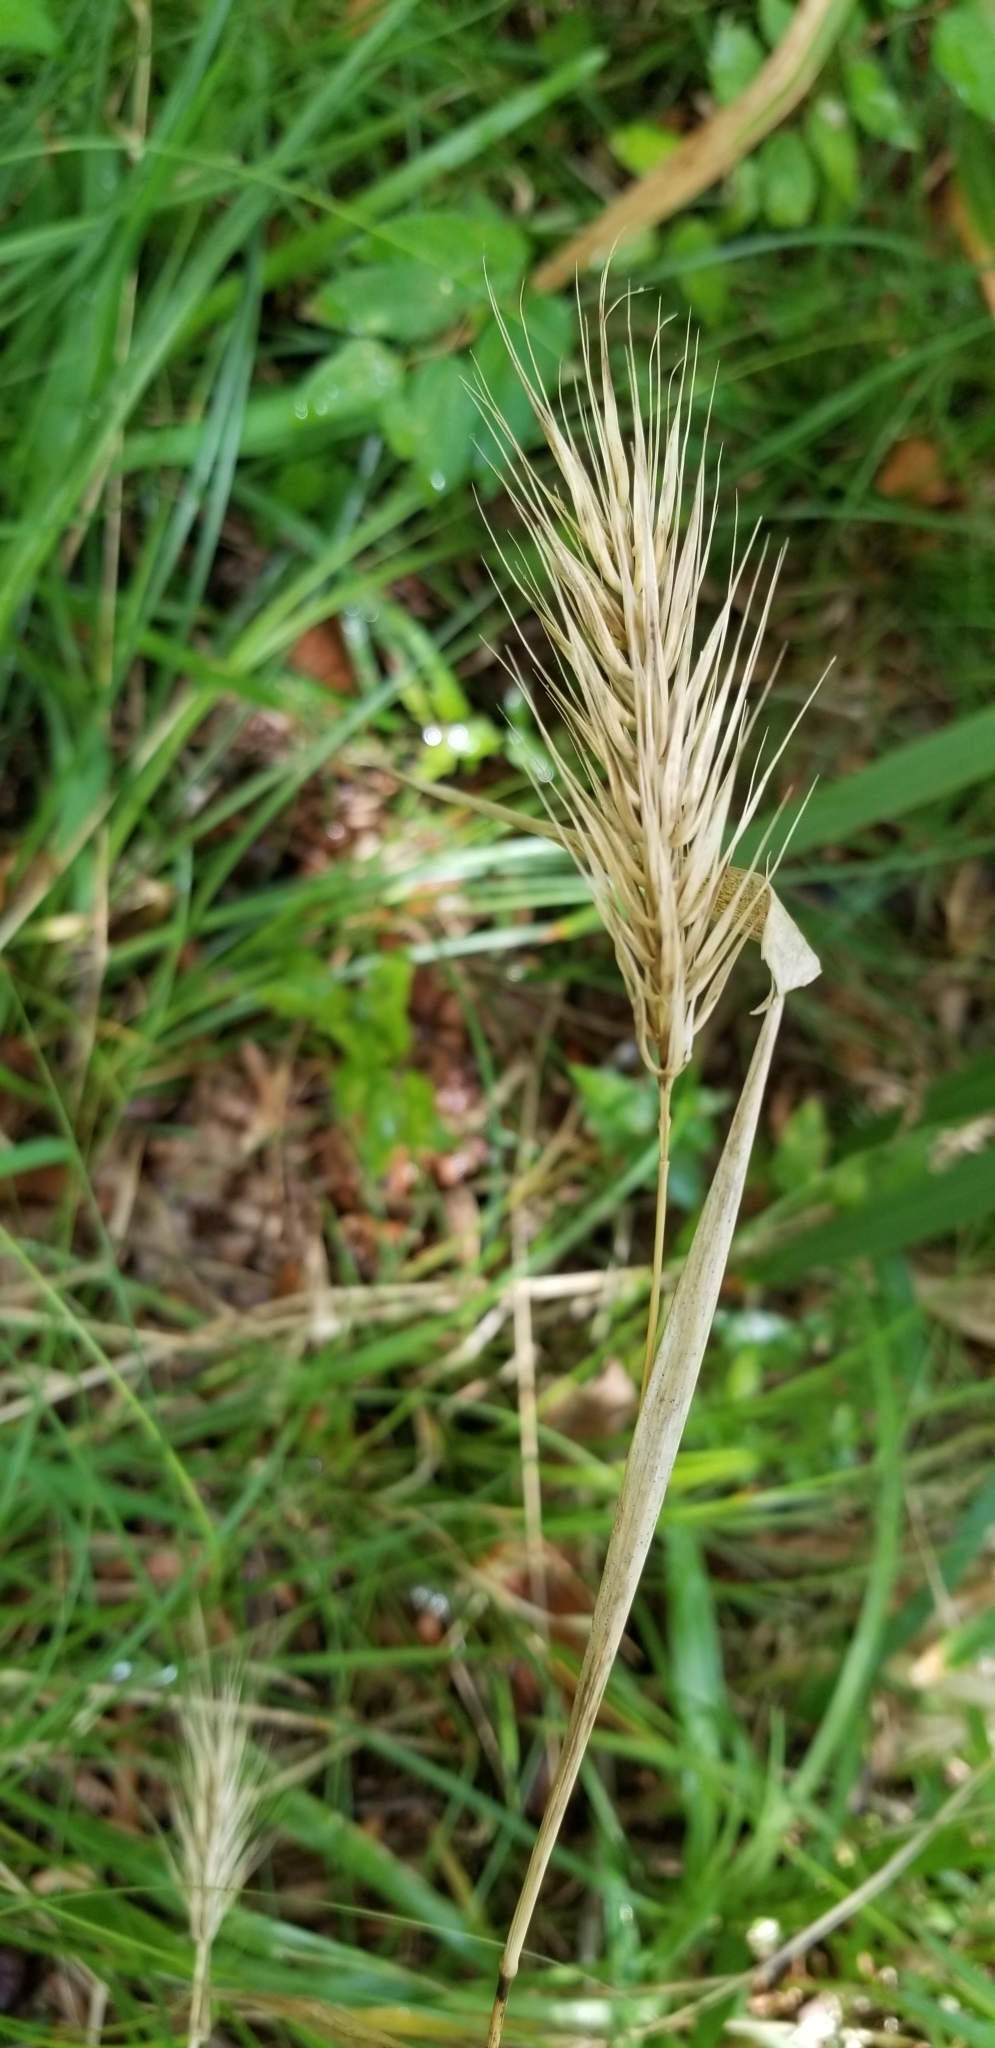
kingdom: Plantae
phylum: Tracheophyta
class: Liliopsida
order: Poales
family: Poaceae
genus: Elymus
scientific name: Elymus virginicus
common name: Common eastern wildrye
